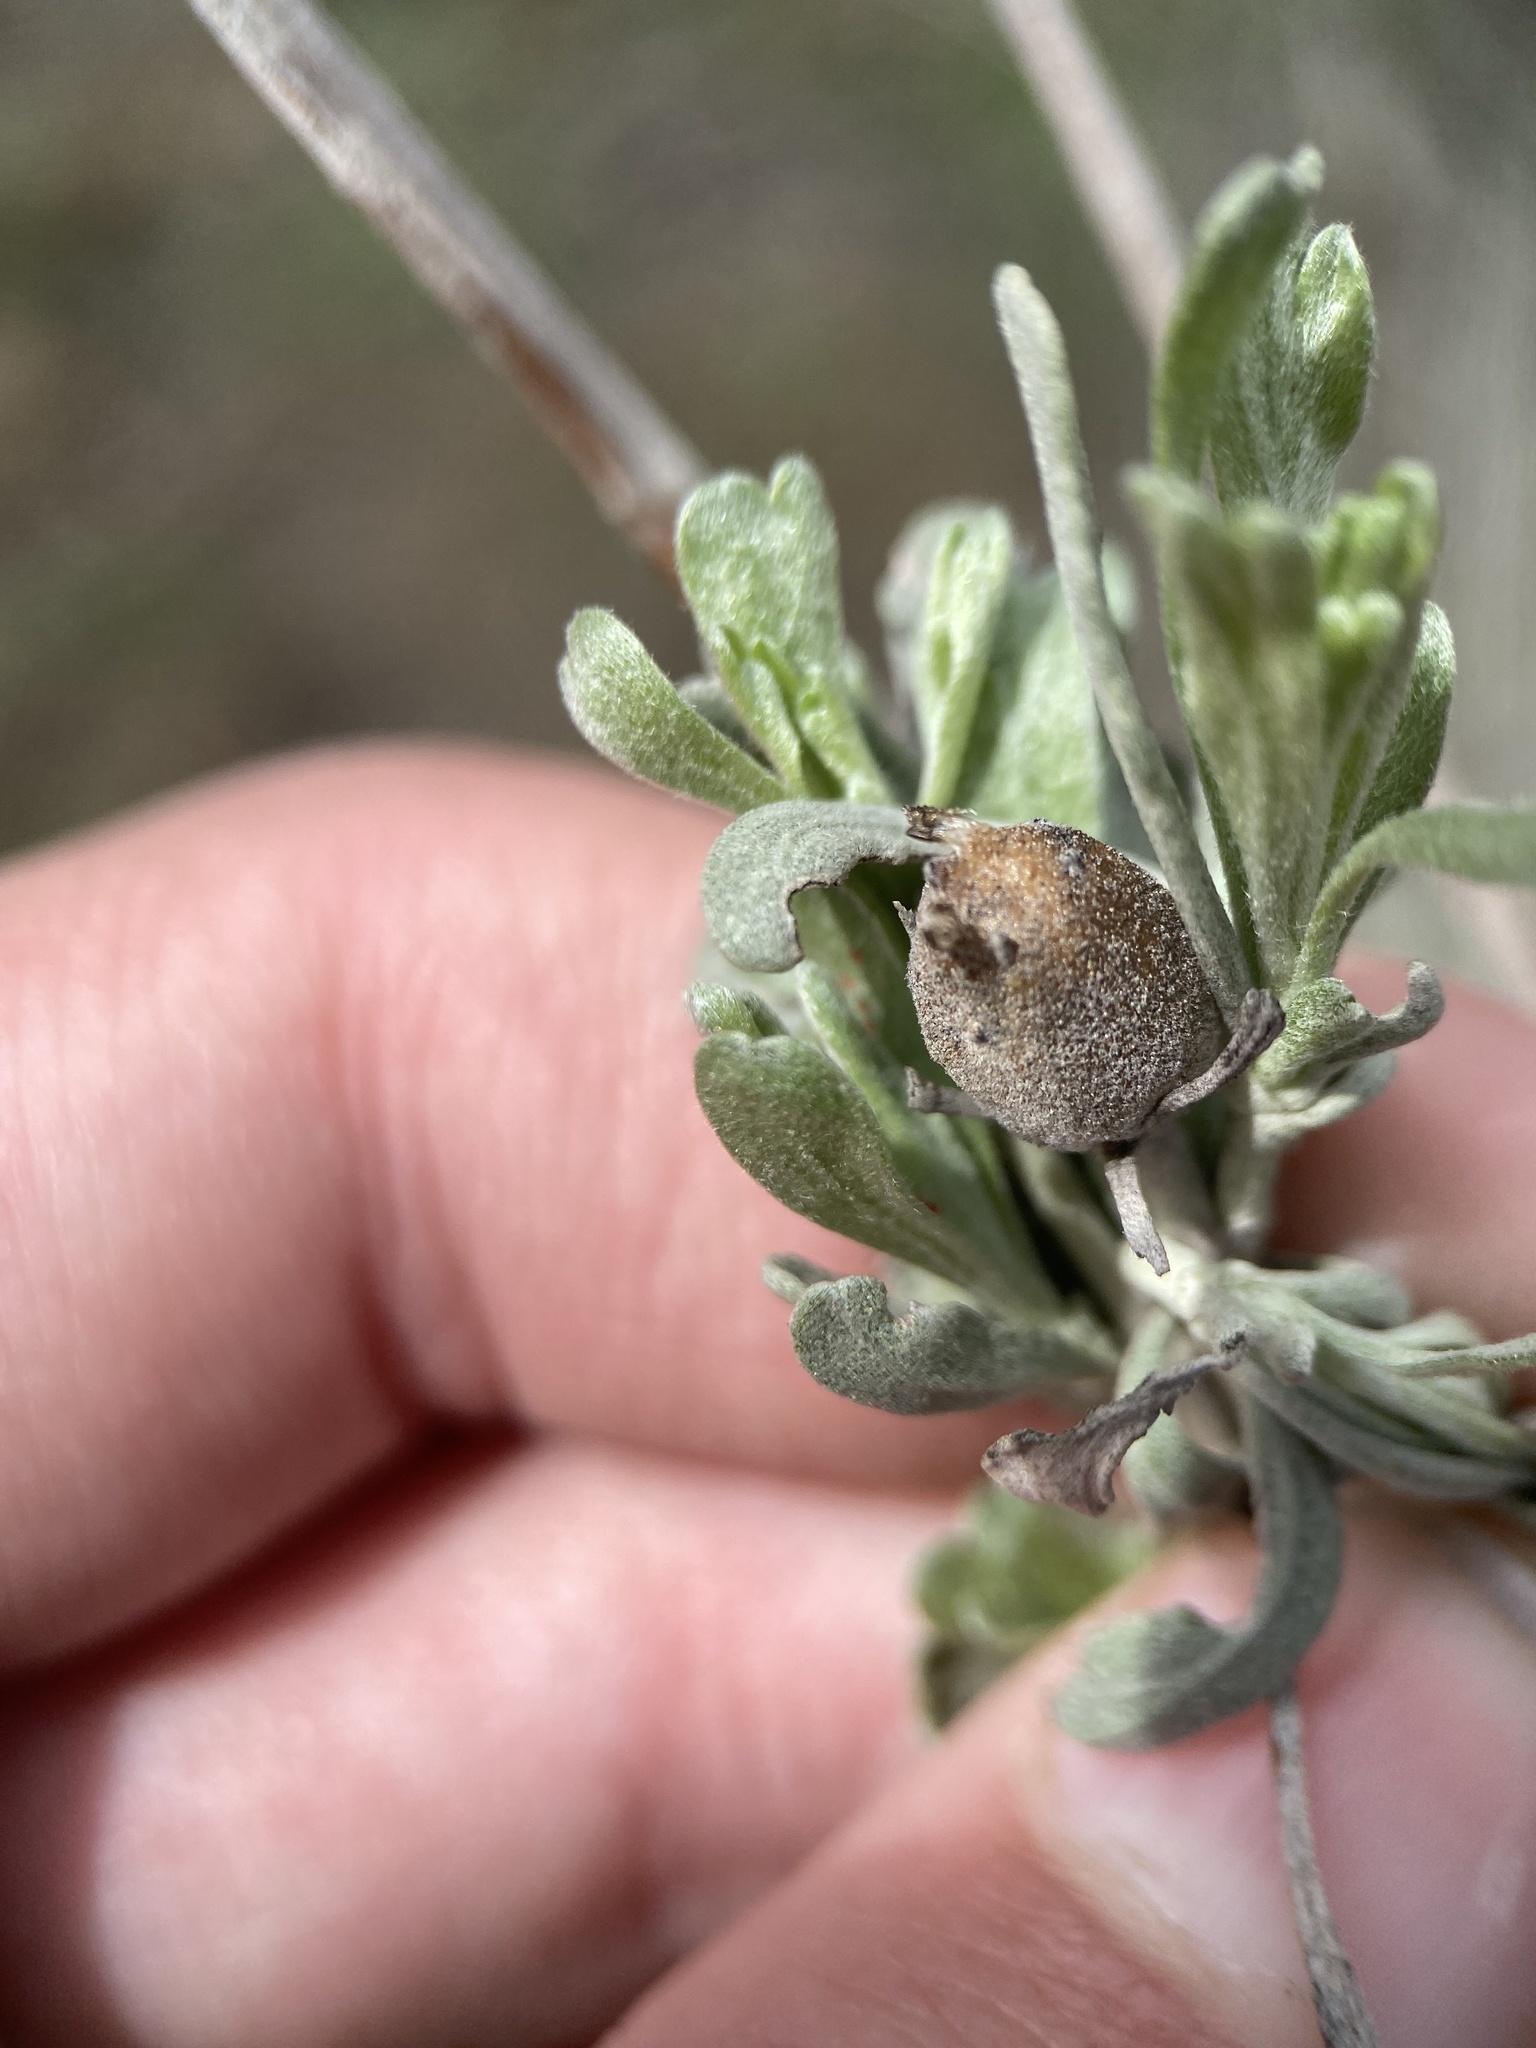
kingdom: Animalia
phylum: Arthropoda
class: Insecta
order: Diptera
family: Cecidomyiidae
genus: Rhopalomyia
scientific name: Rhopalomyia obovata
